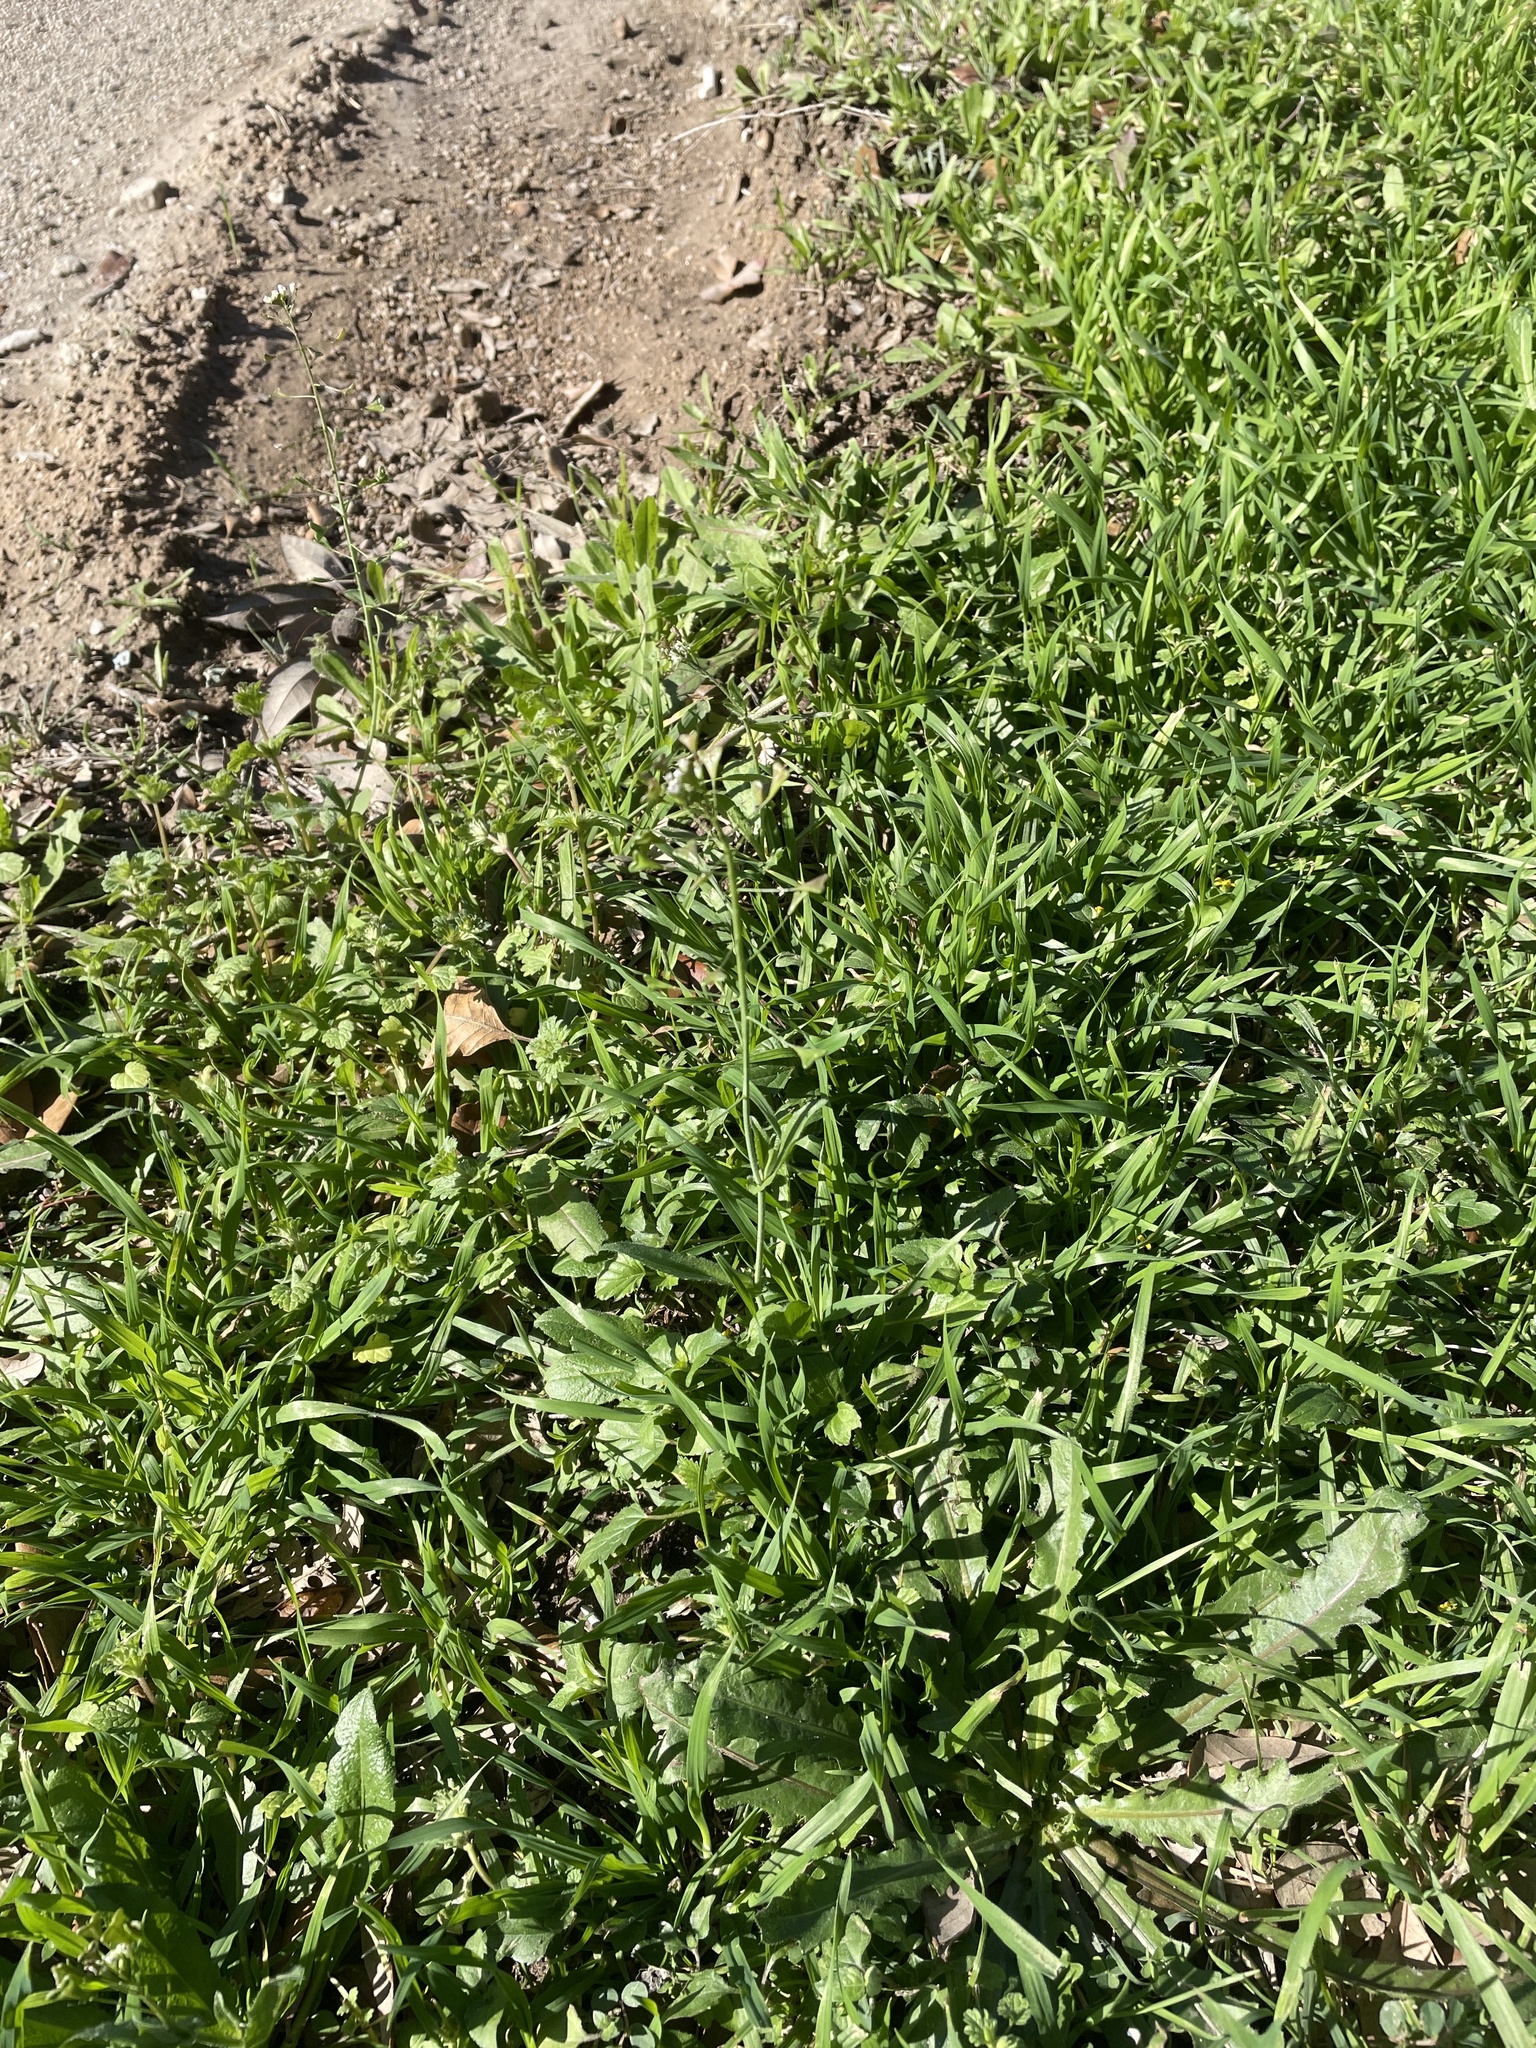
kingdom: Plantae
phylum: Tracheophyta
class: Magnoliopsida
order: Brassicales
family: Brassicaceae
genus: Capsella
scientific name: Capsella bursa-pastoris
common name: Shepherd's purse
